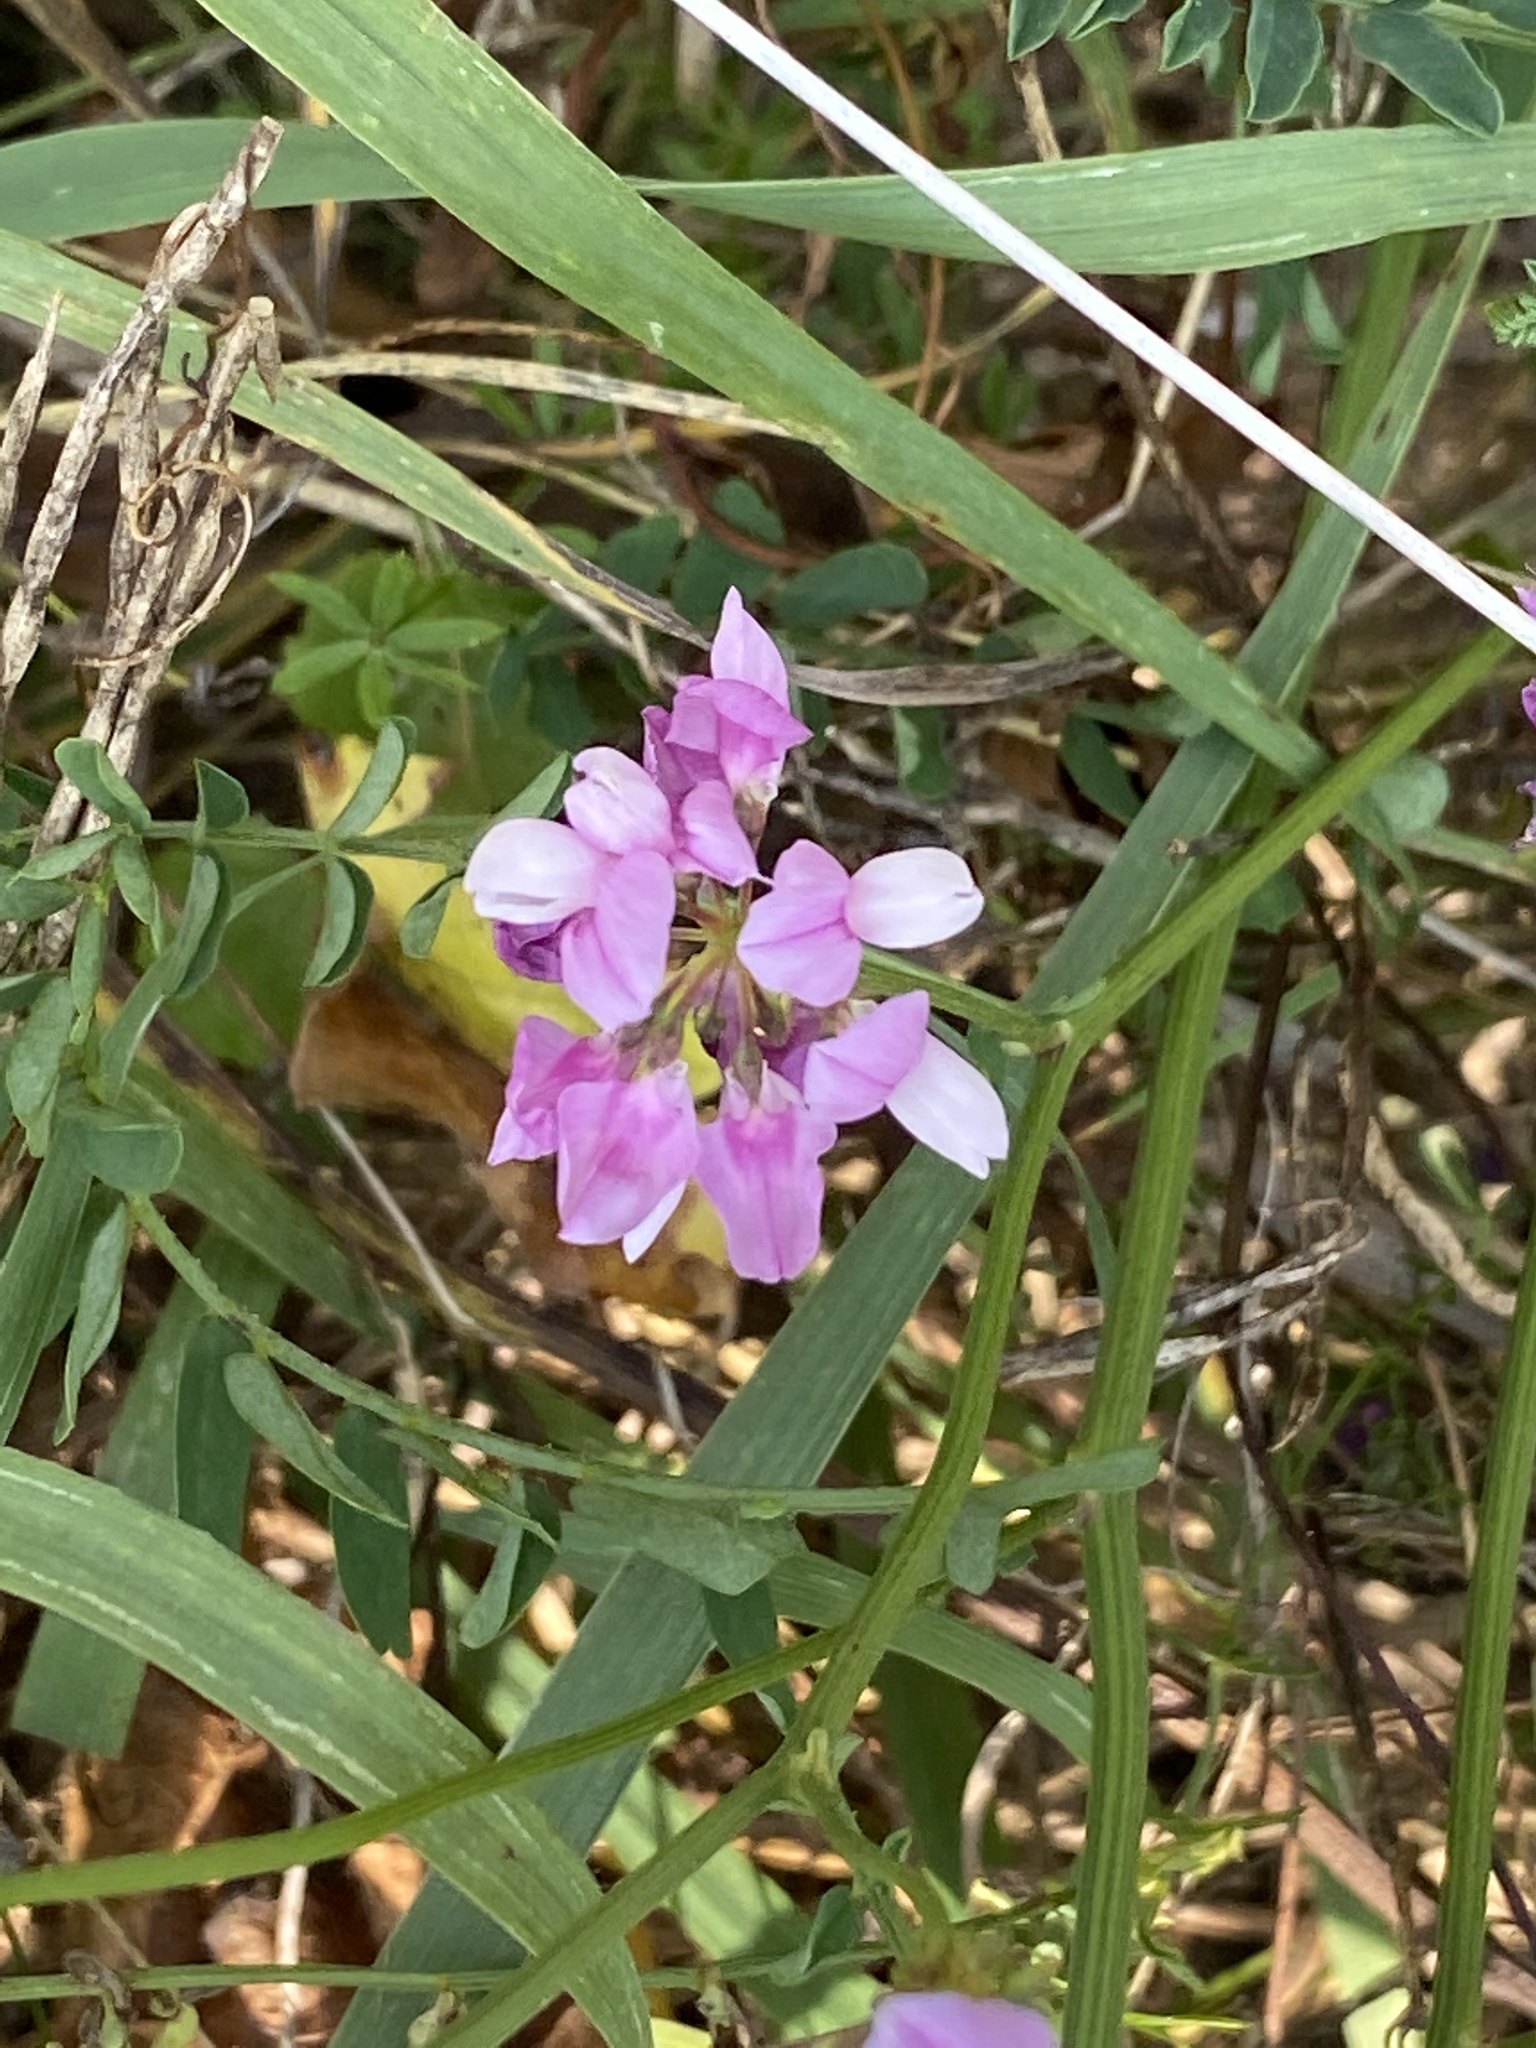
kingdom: Plantae
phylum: Tracheophyta
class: Magnoliopsida
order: Fabales
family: Fabaceae
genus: Coronilla
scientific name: Coronilla varia
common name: Crownvetch
